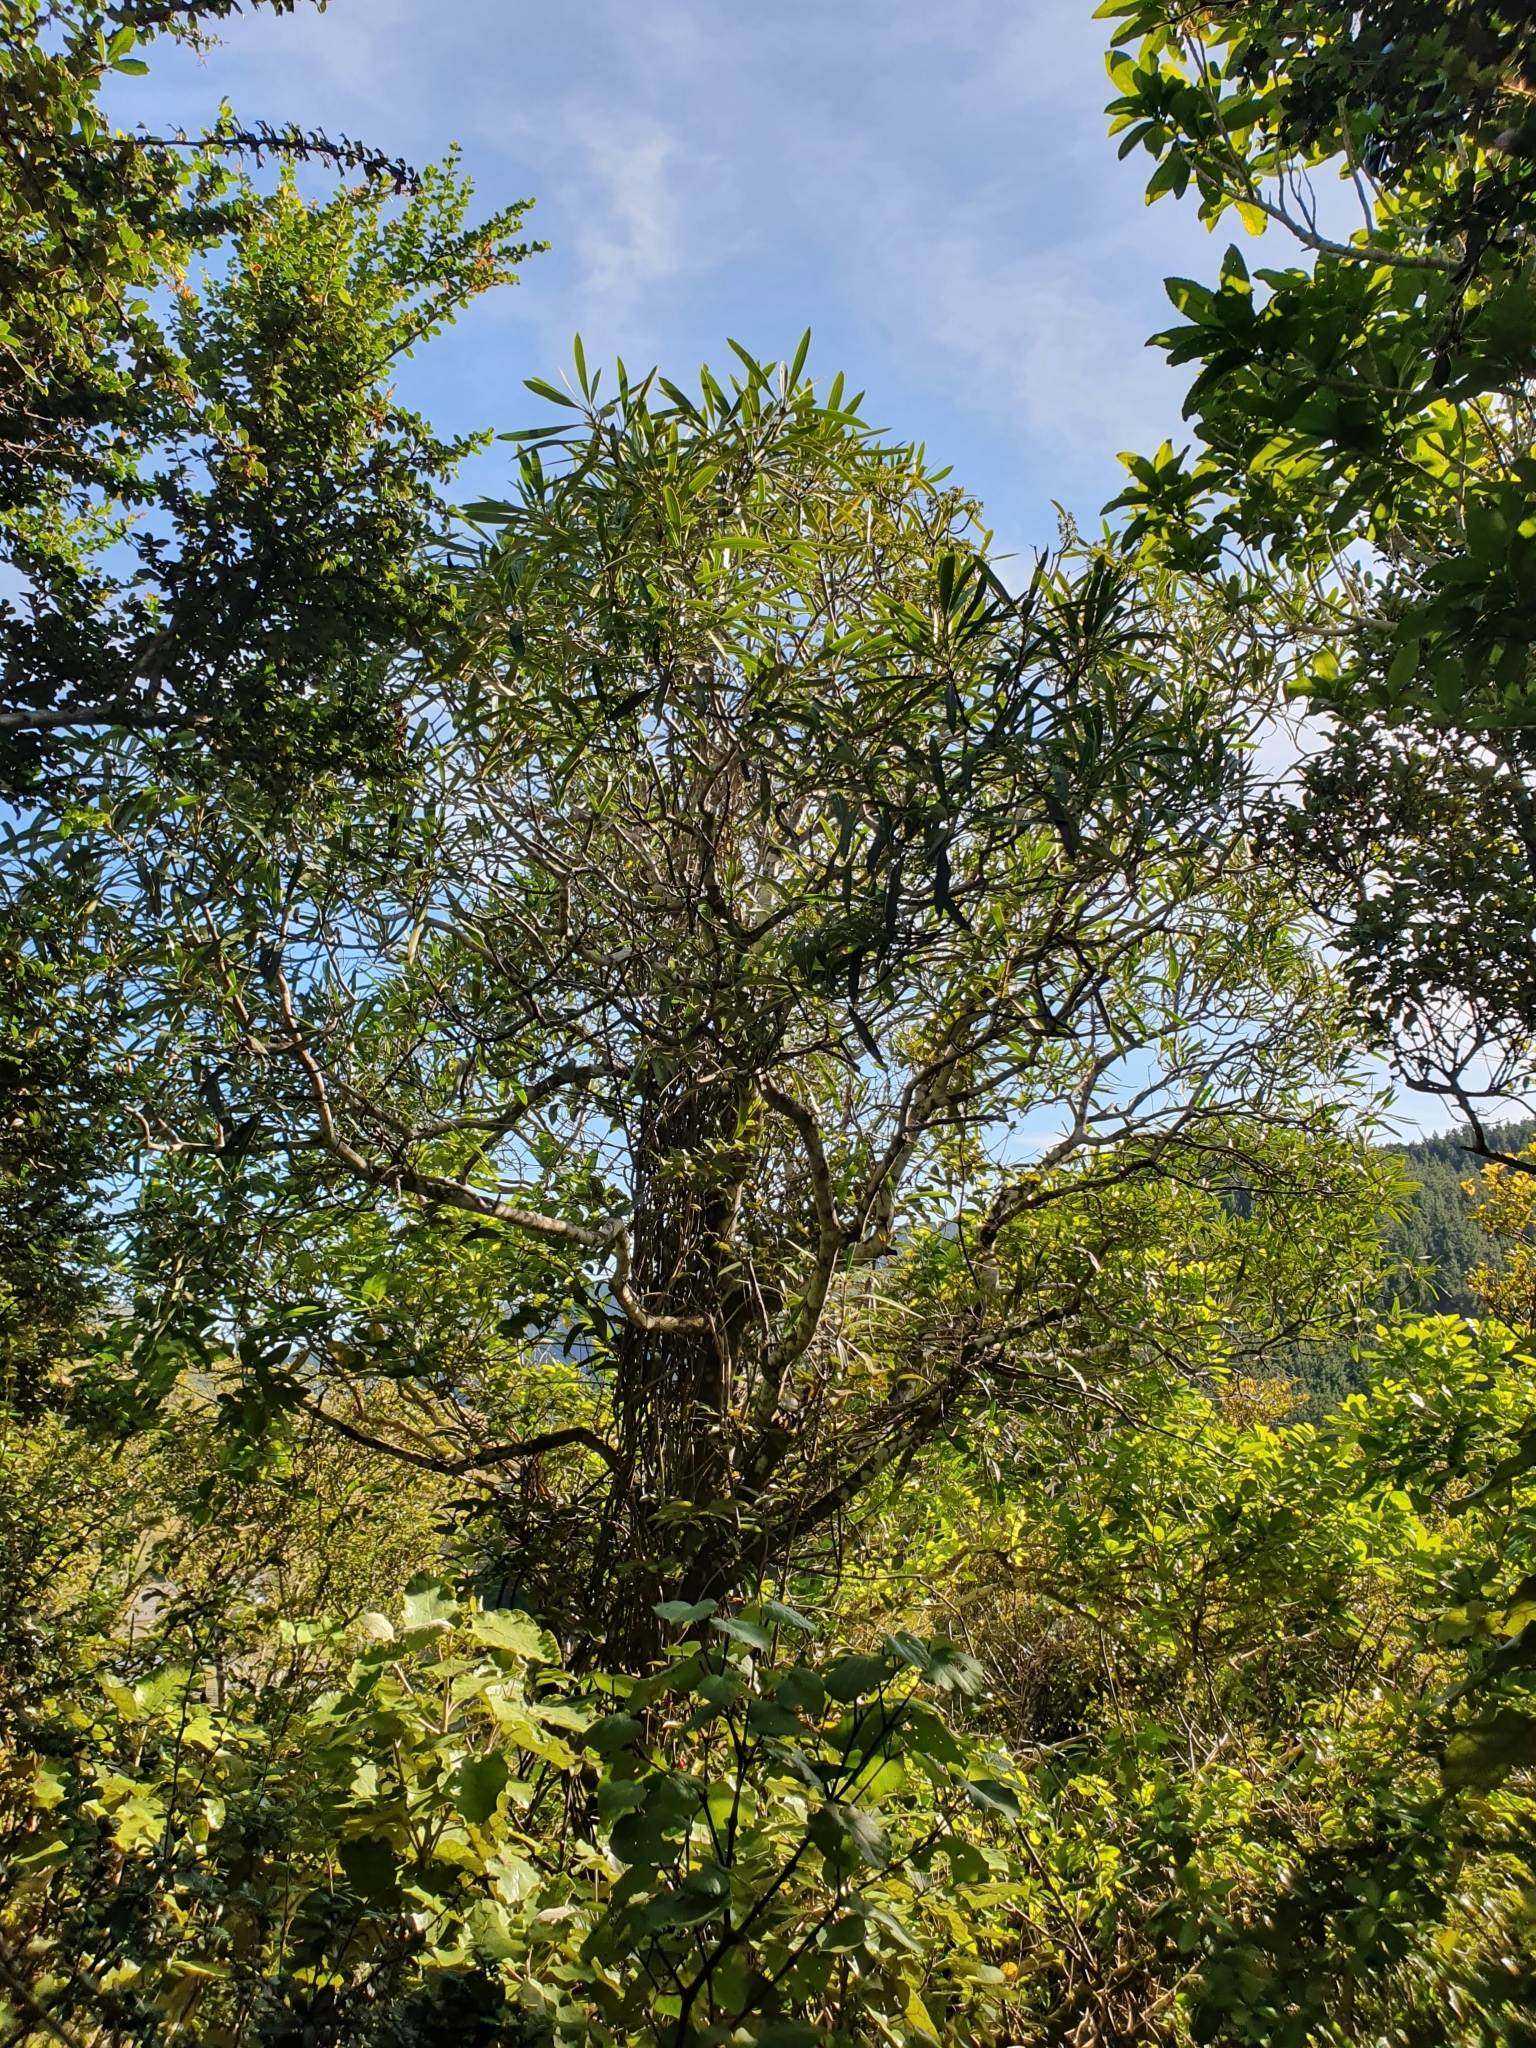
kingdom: Plantae
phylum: Tracheophyta
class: Magnoliopsida
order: Apiales
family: Araliaceae
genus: Pseudopanax
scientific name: Pseudopanax crassifolius
